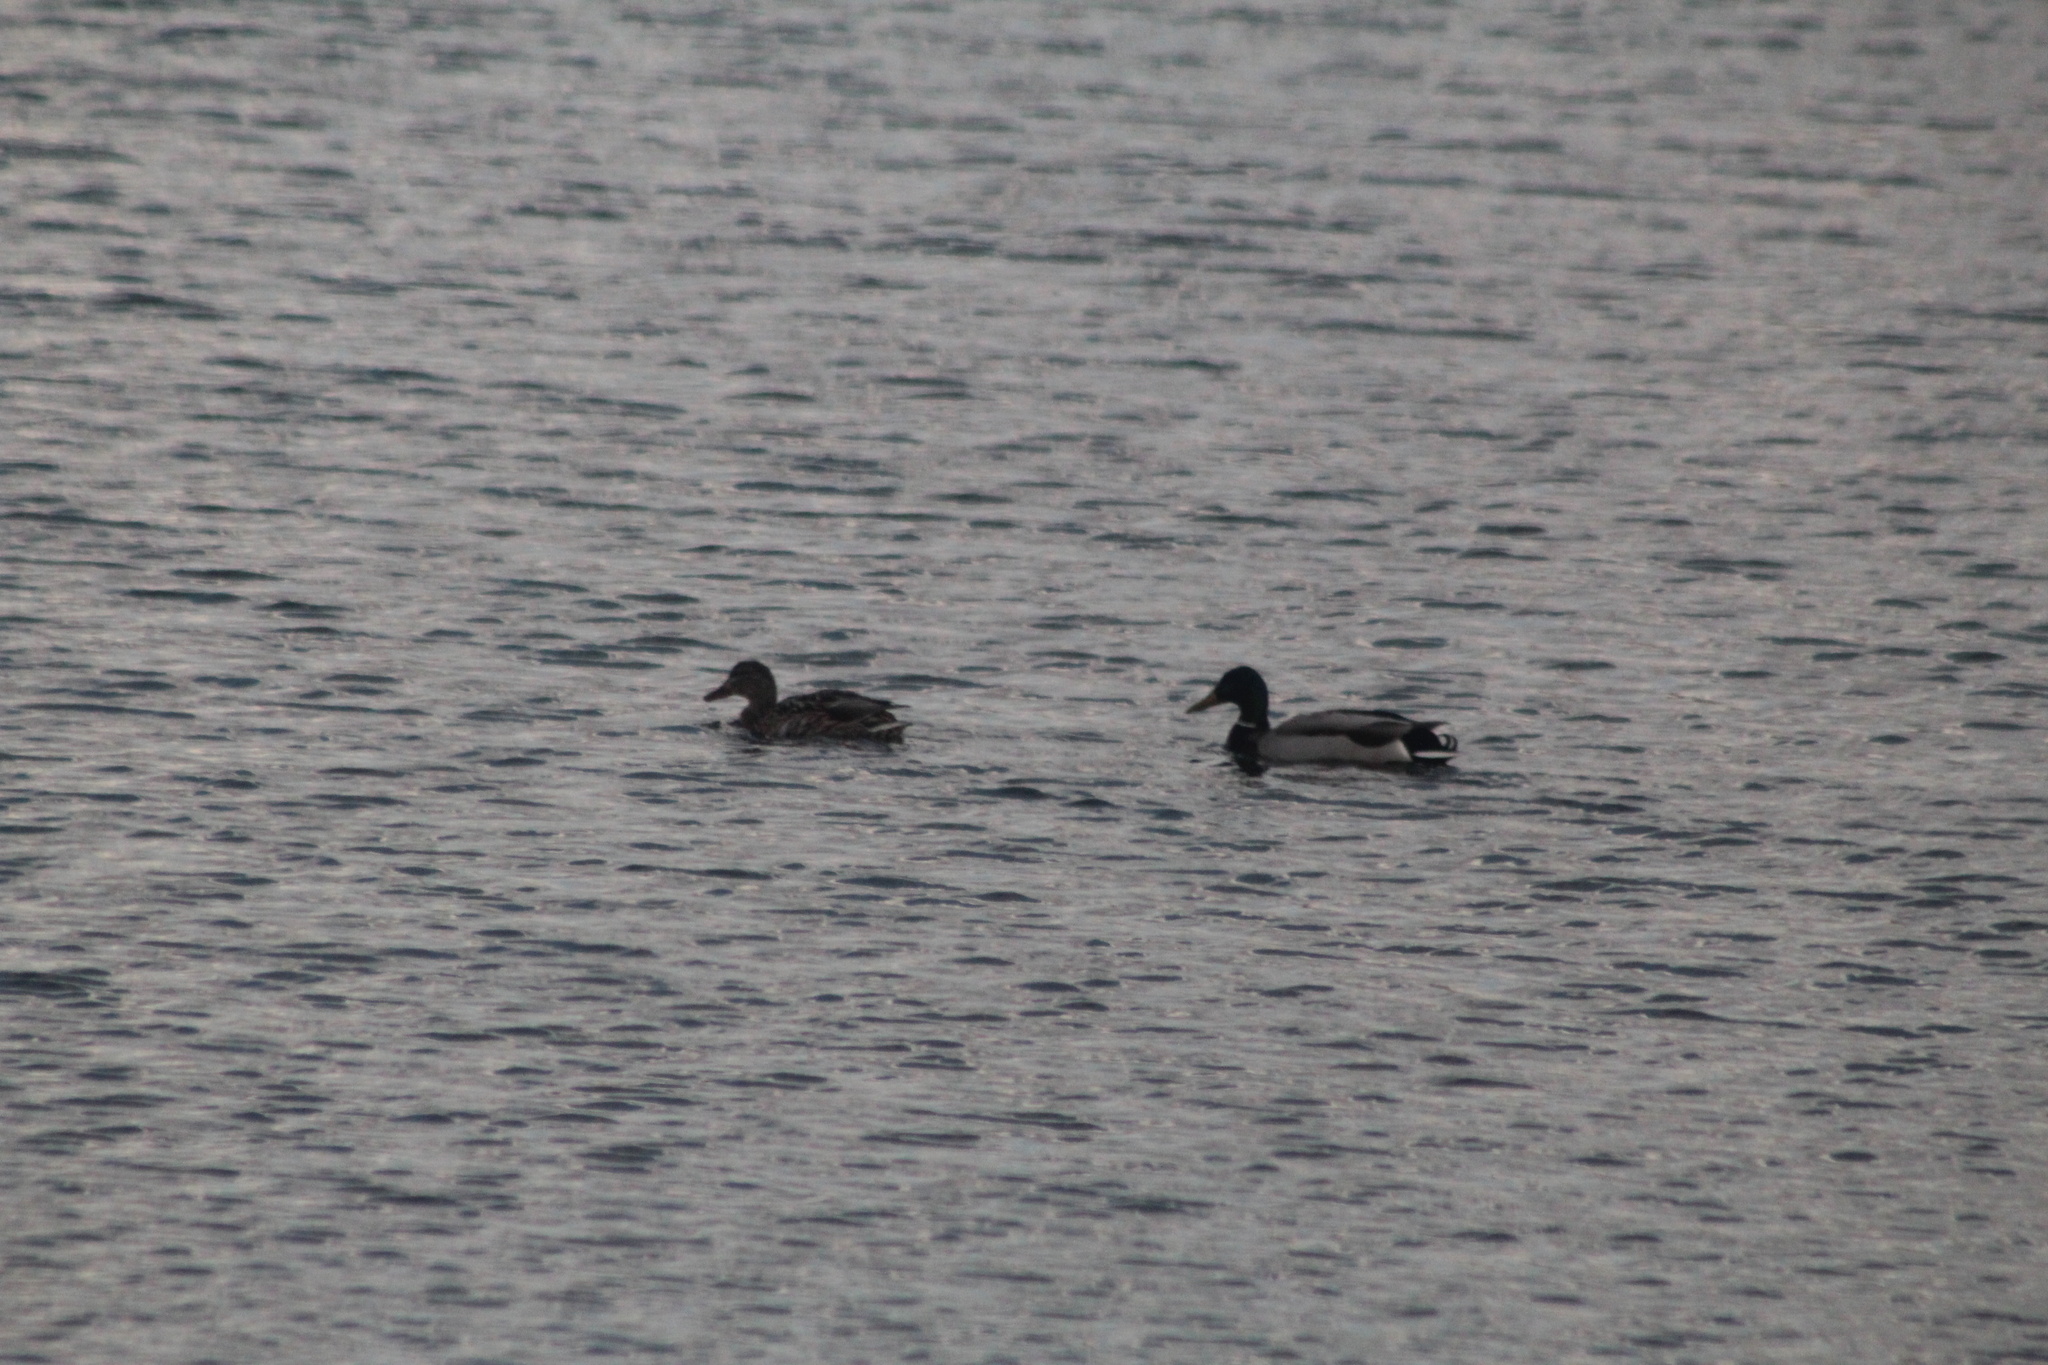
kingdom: Animalia
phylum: Chordata
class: Aves
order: Anseriformes
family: Anatidae
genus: Anas
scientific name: Anas platyrhynchos
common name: Mallard
